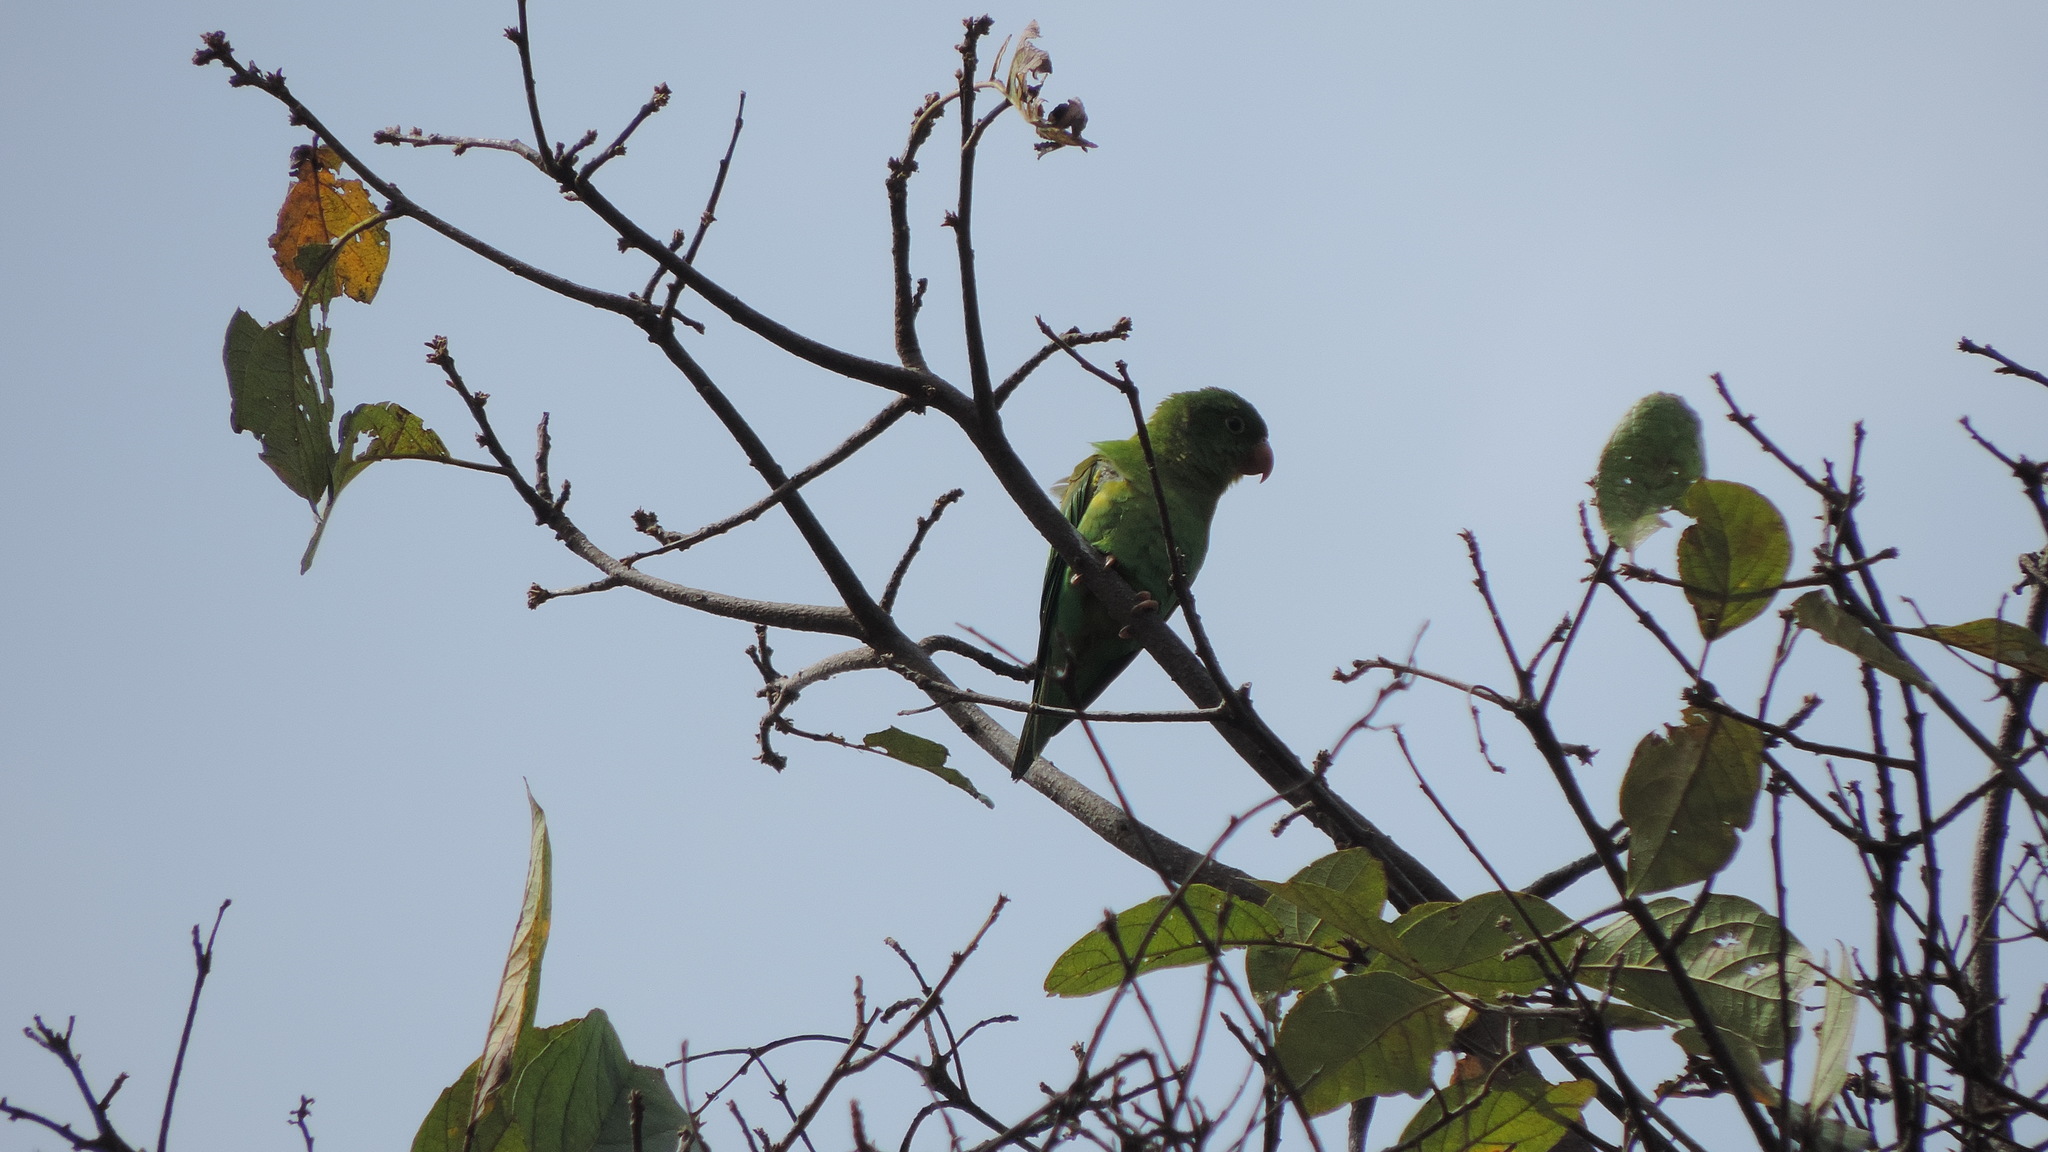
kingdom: Animalia
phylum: Chordata
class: Aves
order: Psittaciformes
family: Psittacidae
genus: Brotogeris
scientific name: Brotogeris jugularis
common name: Orange-chinned parakeet
